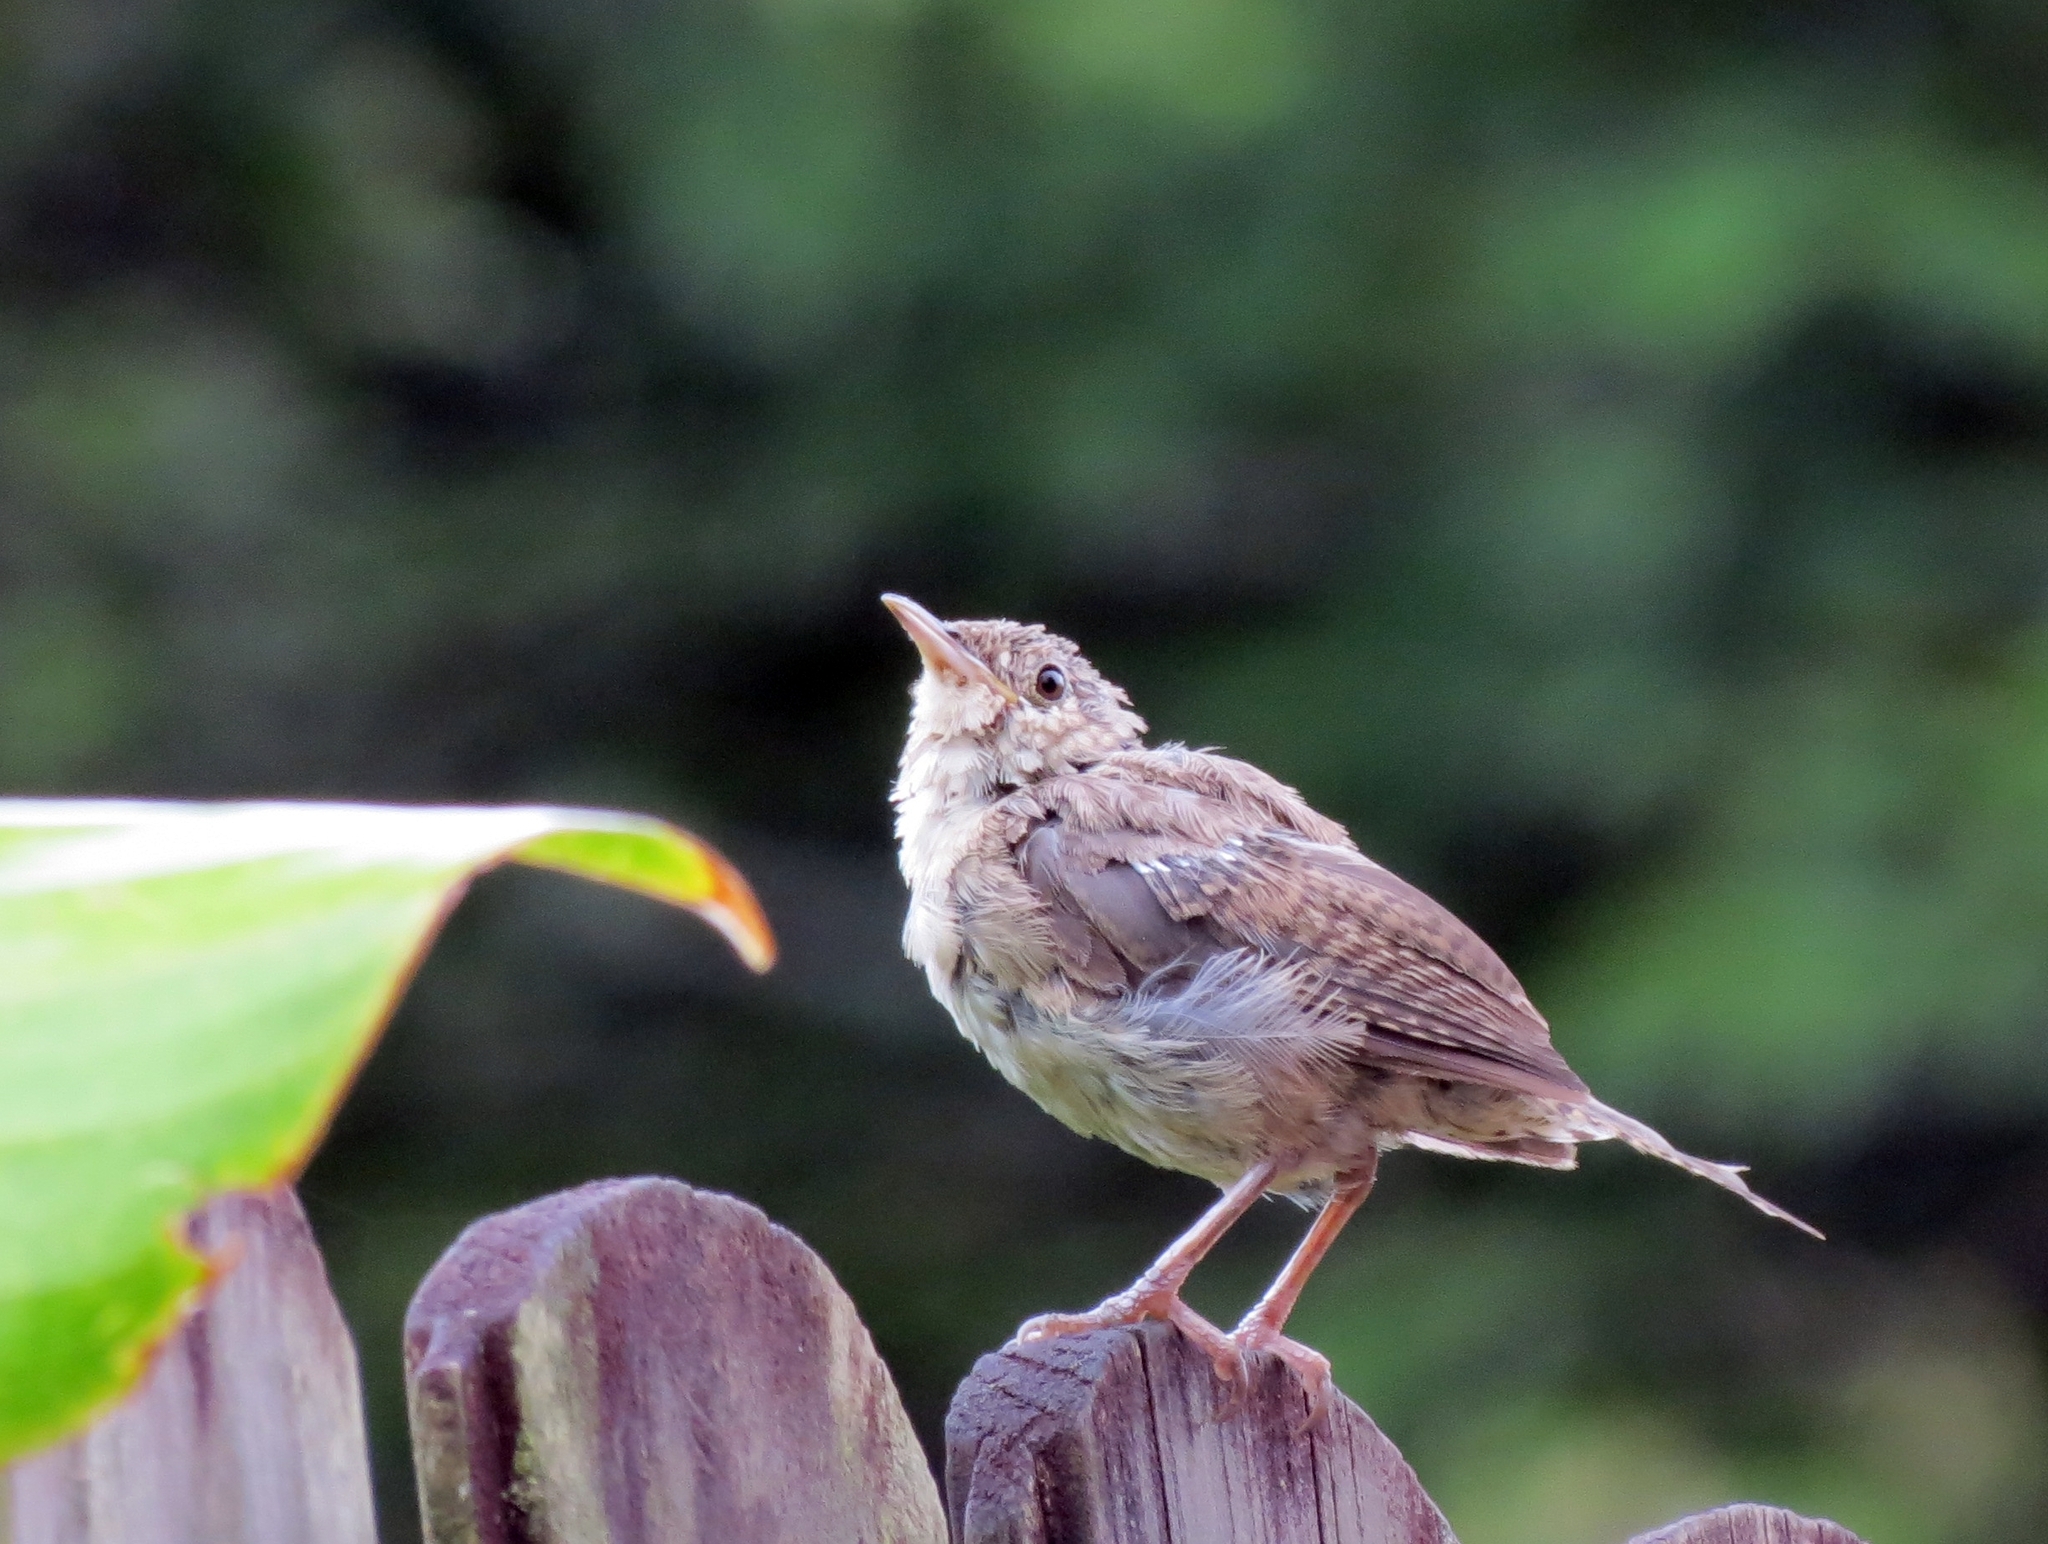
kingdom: Animalia
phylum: Chordata
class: Aves
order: Passeriformes
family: Troglodytidae
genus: Troglodytes
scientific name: Troglodytes aedon
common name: House wren
